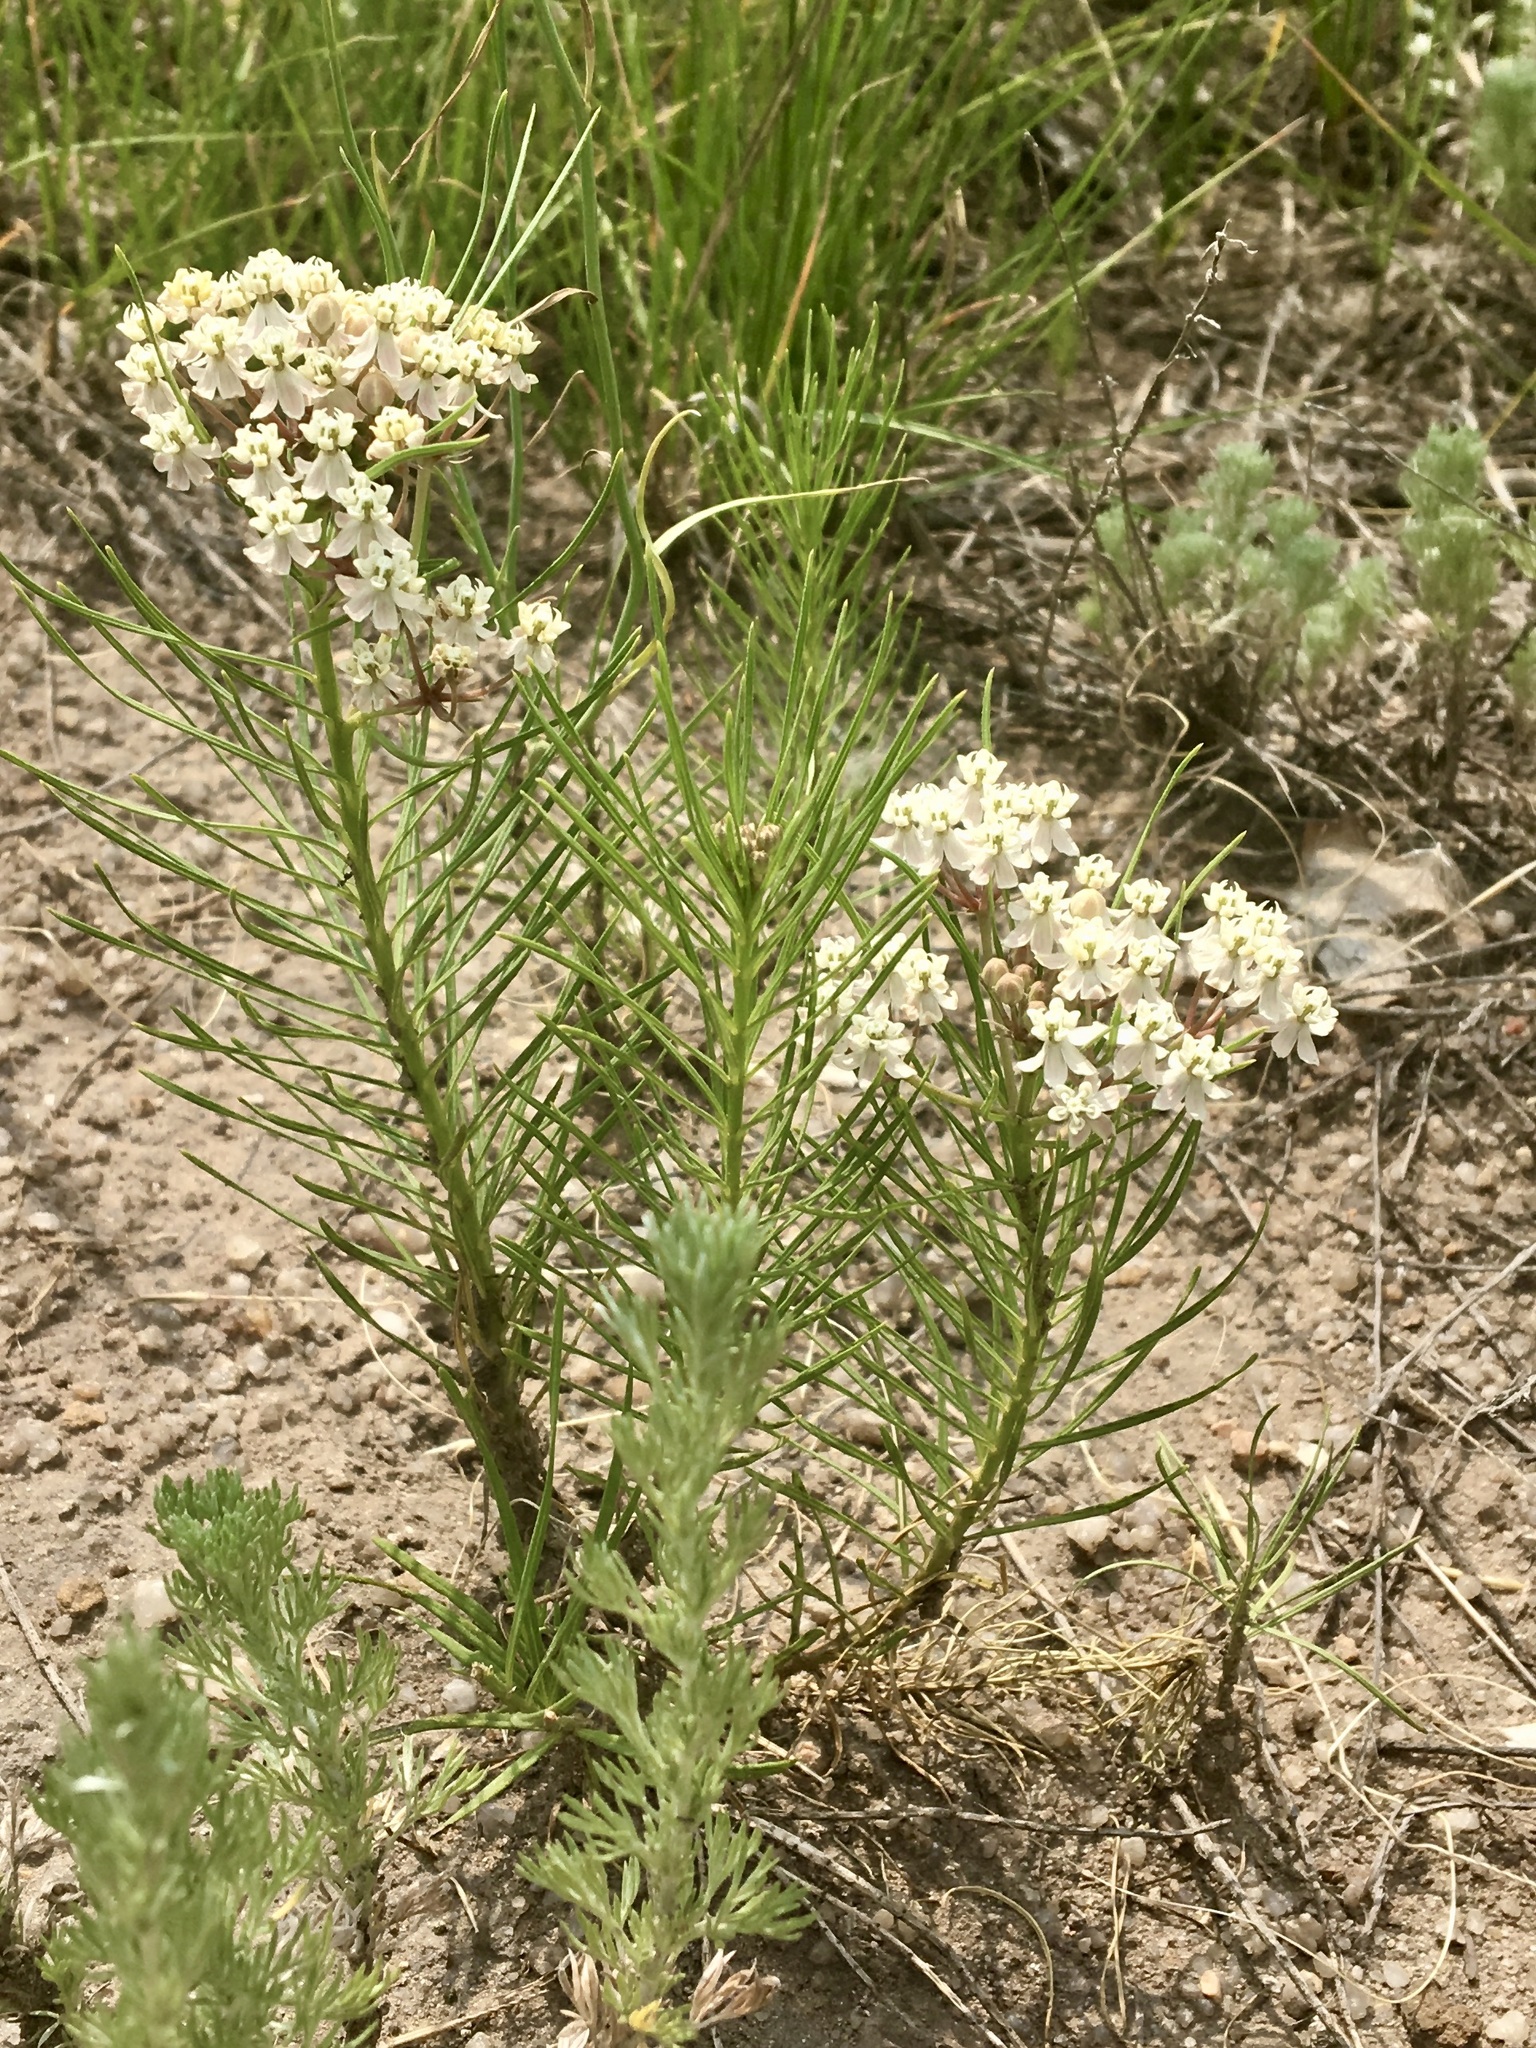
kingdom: Plantae
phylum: Tracheophyta
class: Magnoliopsida
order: Gentianales
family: Apocynaceae
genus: Asclepias
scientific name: Asclepias subverticillata
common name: Horsetail milkweed
